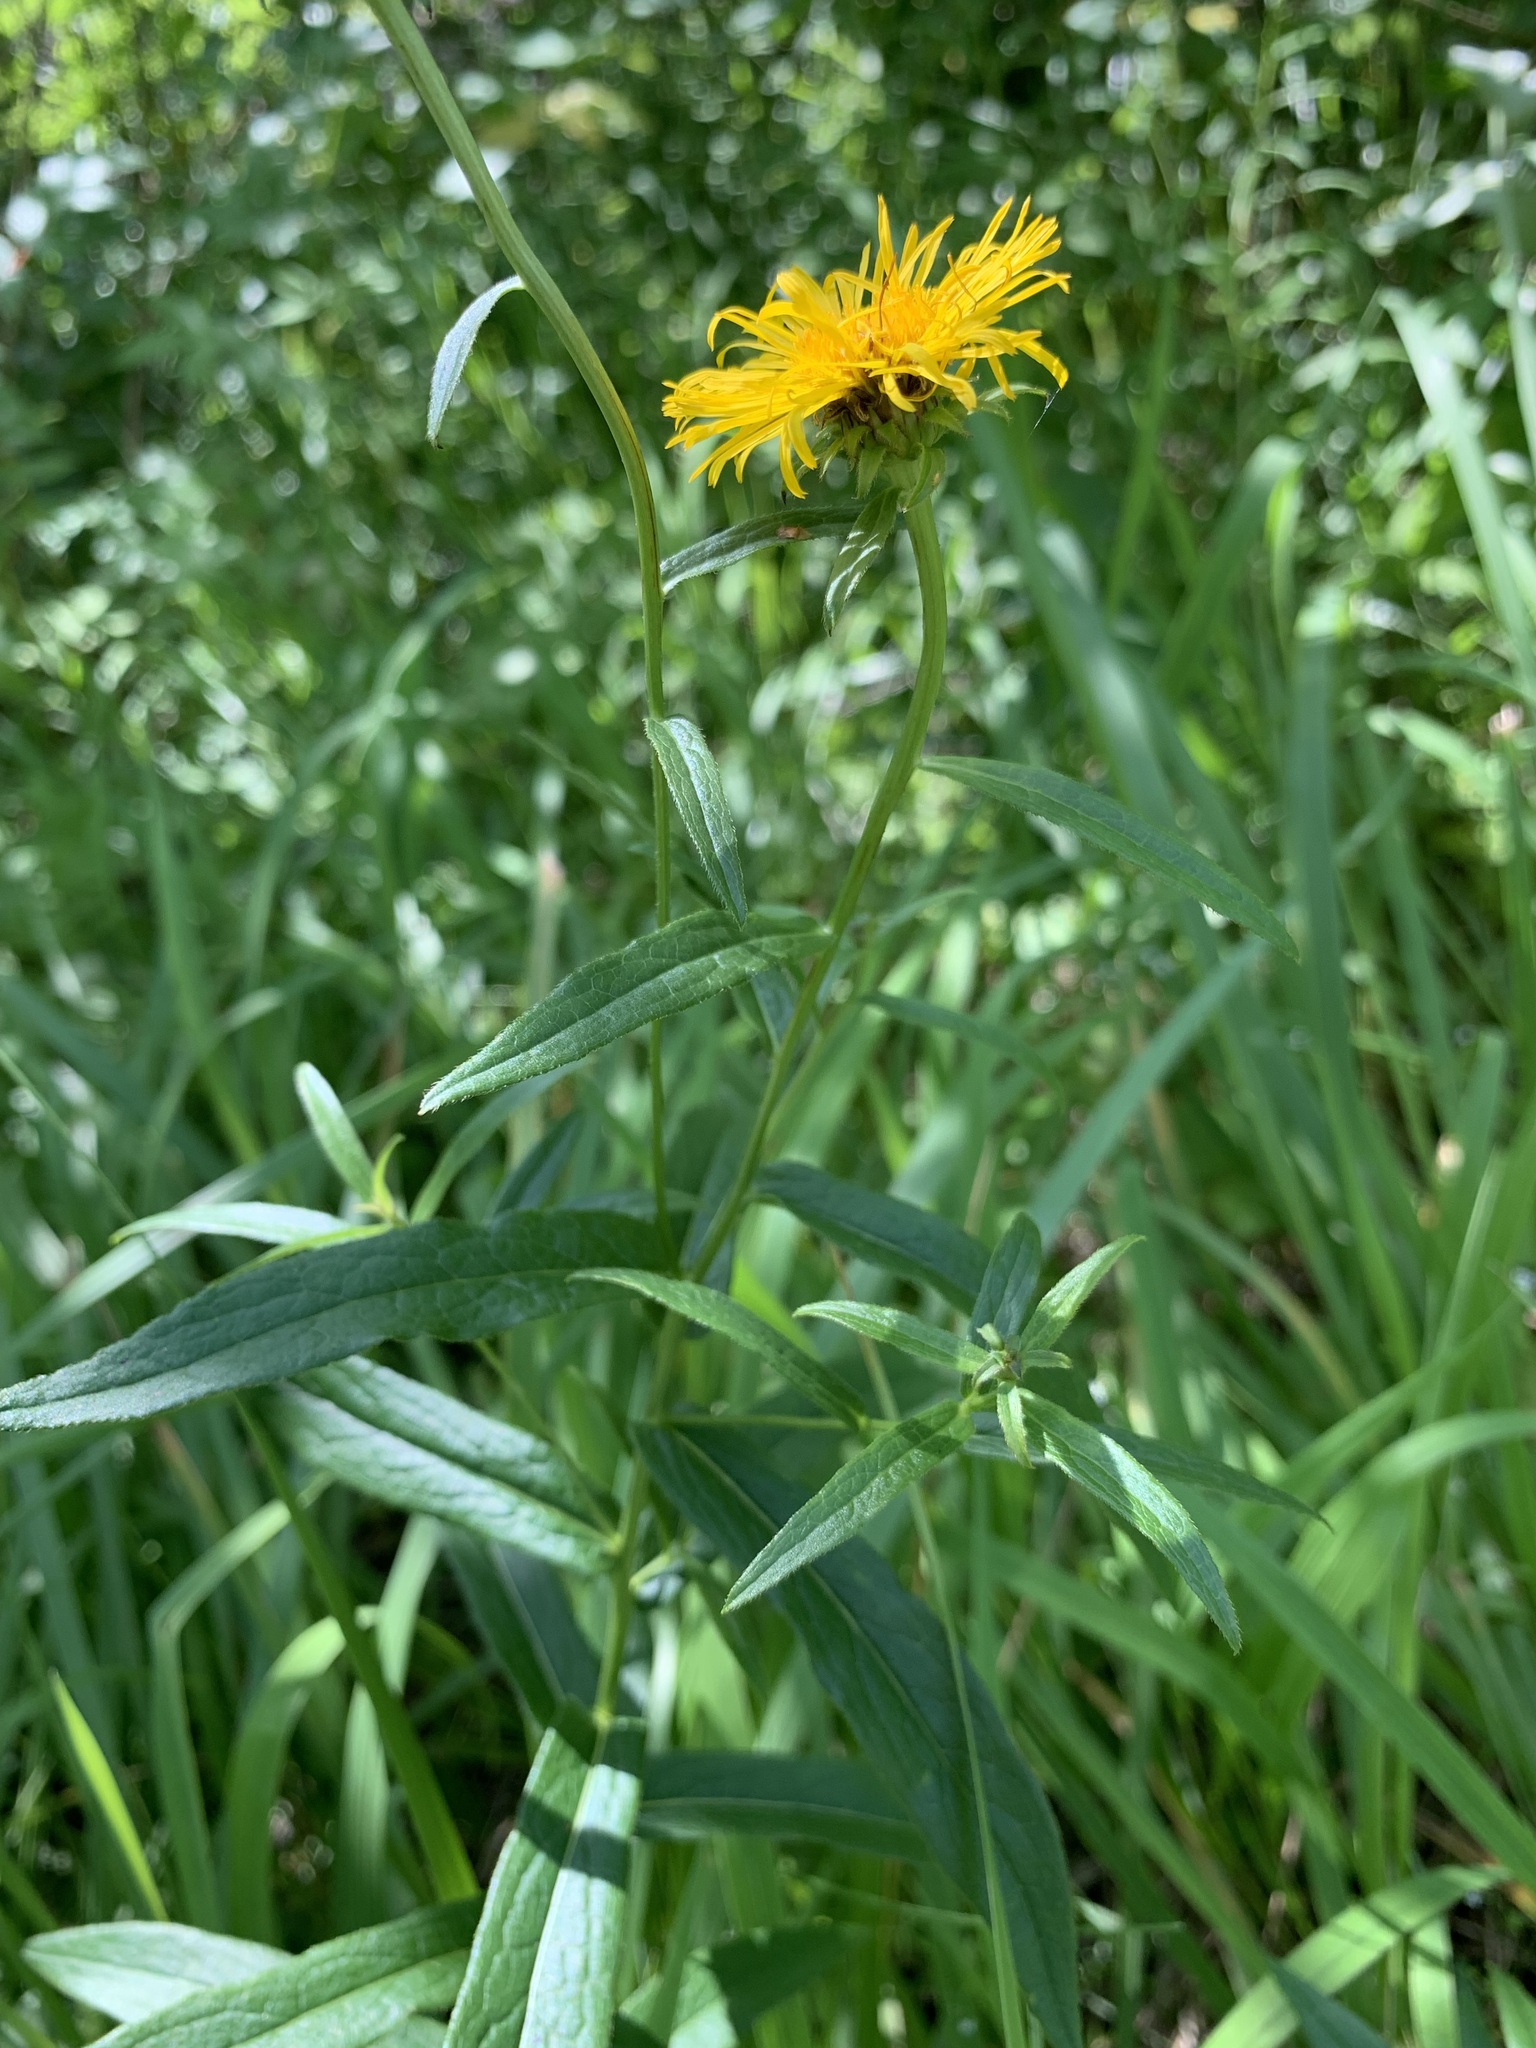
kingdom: Plantae
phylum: Tracheophyta
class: Magnoliopsida
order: Asterales
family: Asteraceae
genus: Pentanema
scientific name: Pentanema salicinum
